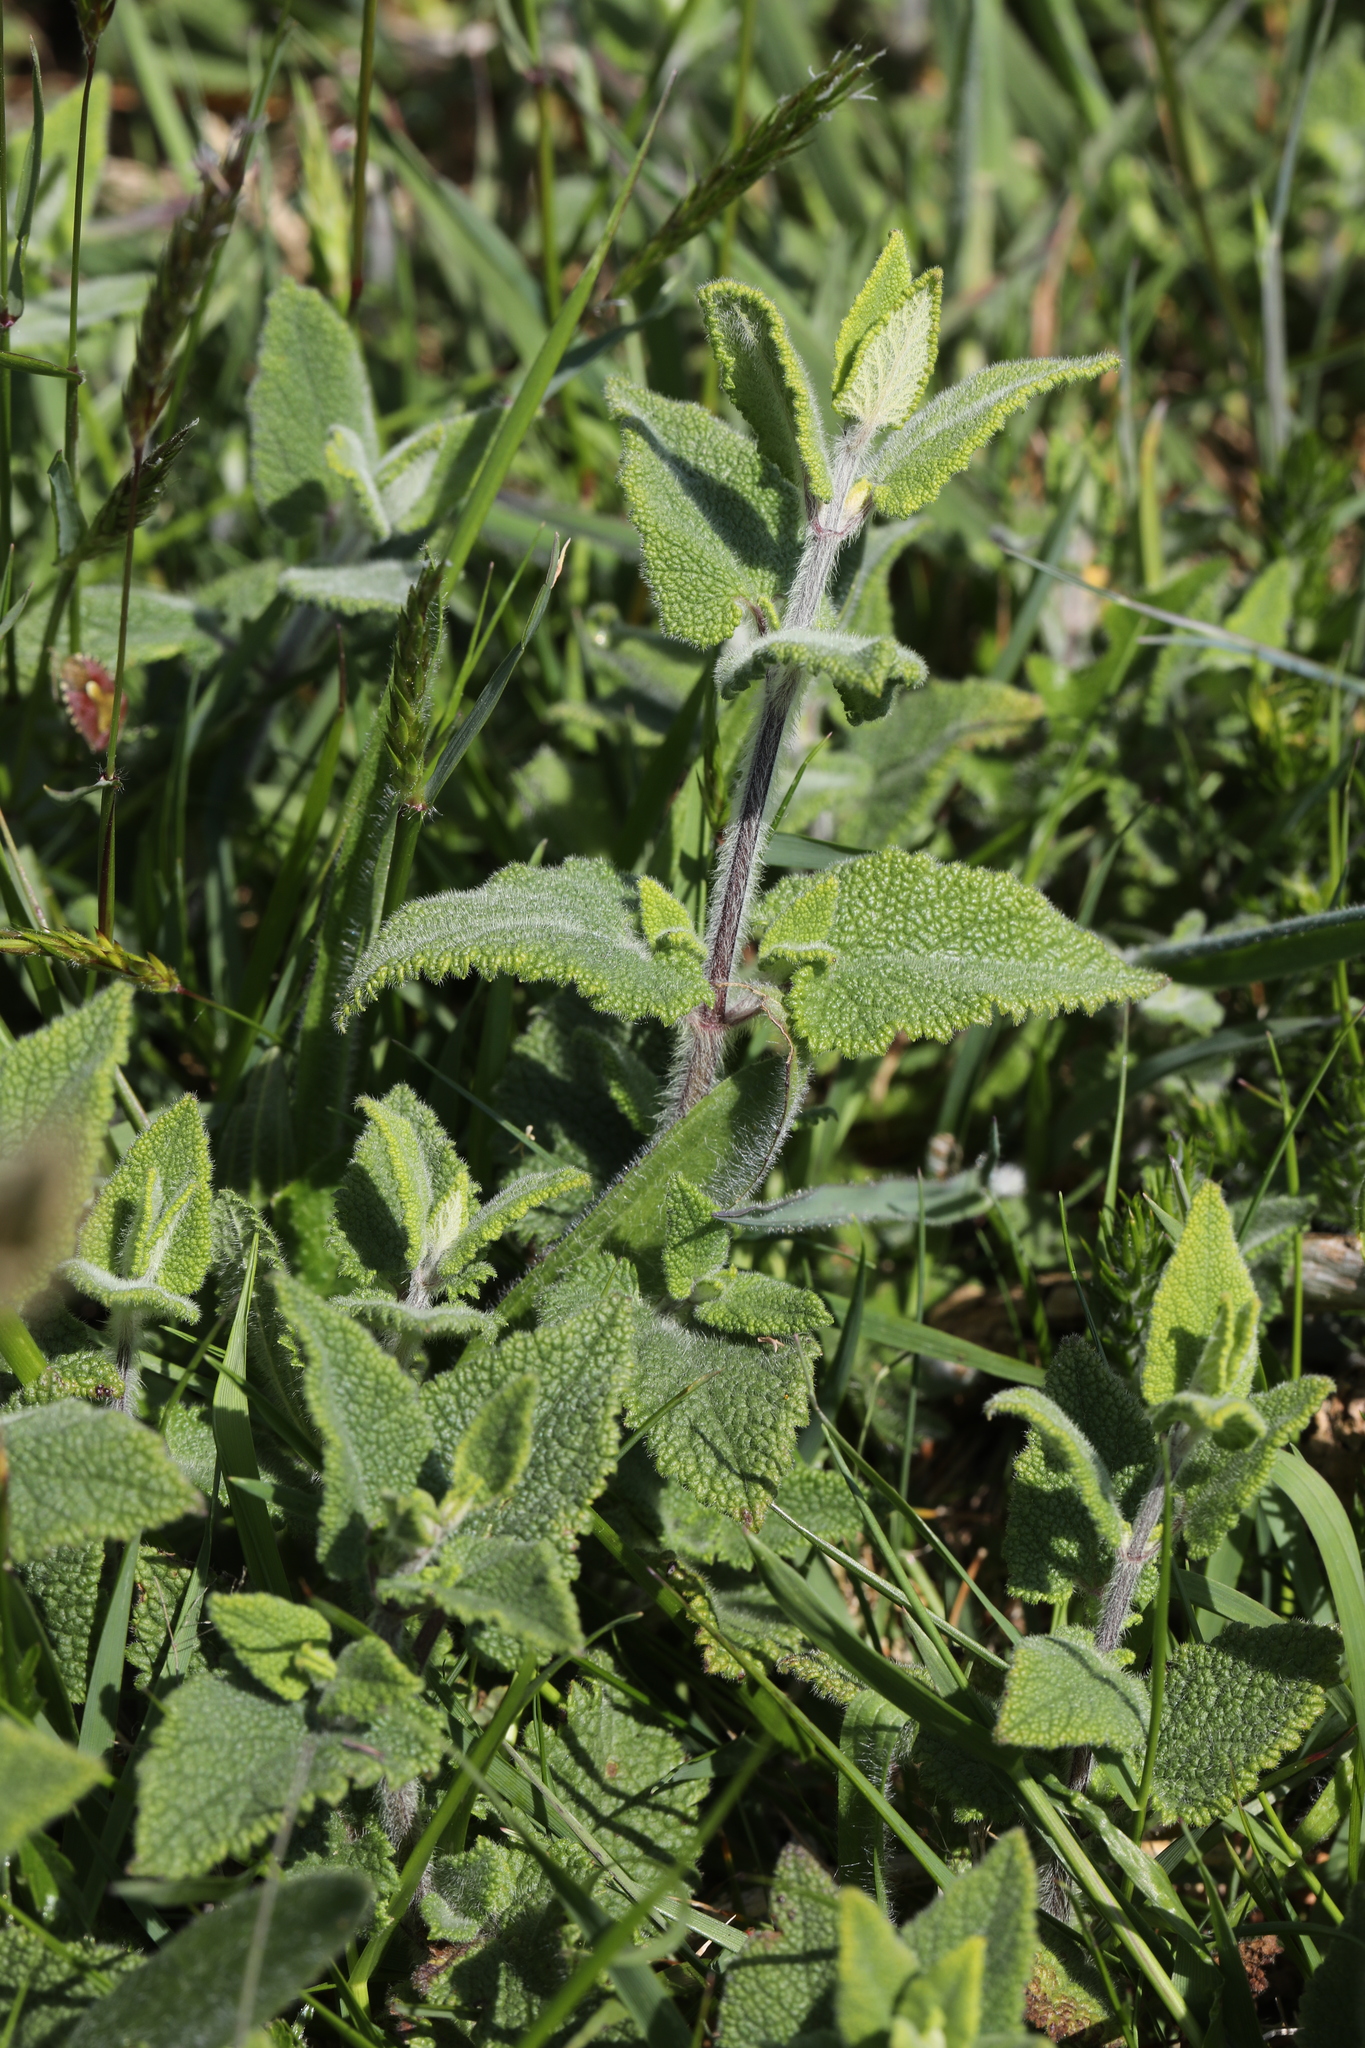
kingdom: Plantae
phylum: Tracheophyta
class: Magnoliopsida
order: Lamiales
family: Lamiaceae
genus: Teucrium
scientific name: Teucrium scorodonia
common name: Woodland germander
